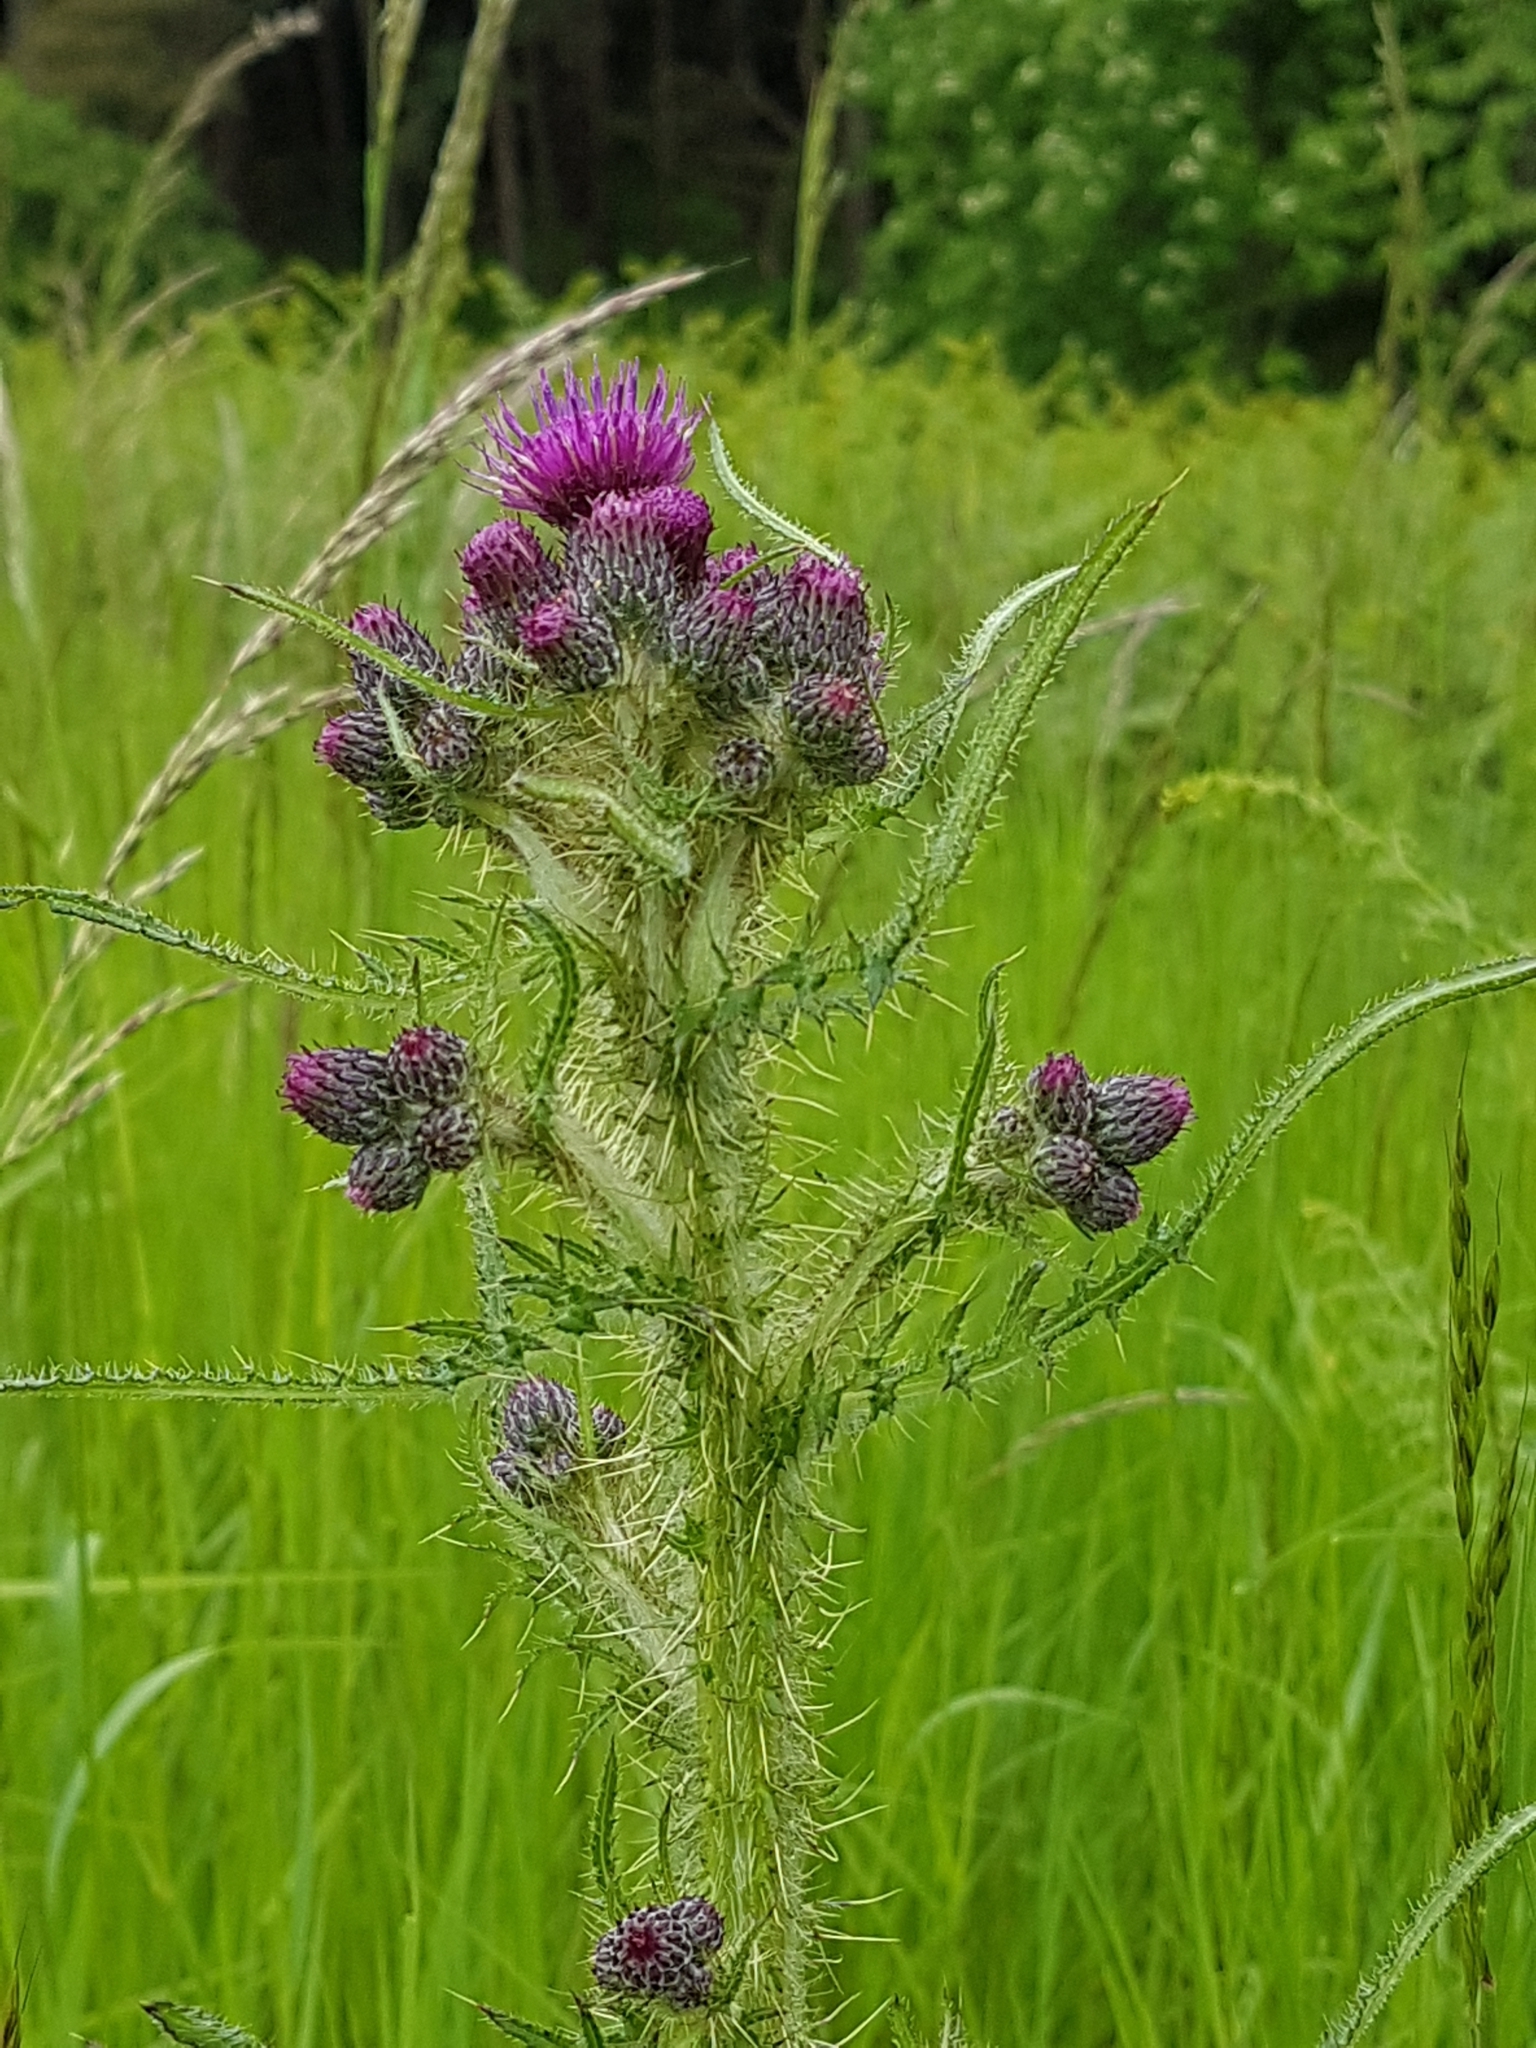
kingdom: Plantae
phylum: Tracheophyta
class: Magnoliopsida
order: Asterales
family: Asteraceae
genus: Cirsium
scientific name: Cirsium palustre
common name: Marsh thistle
